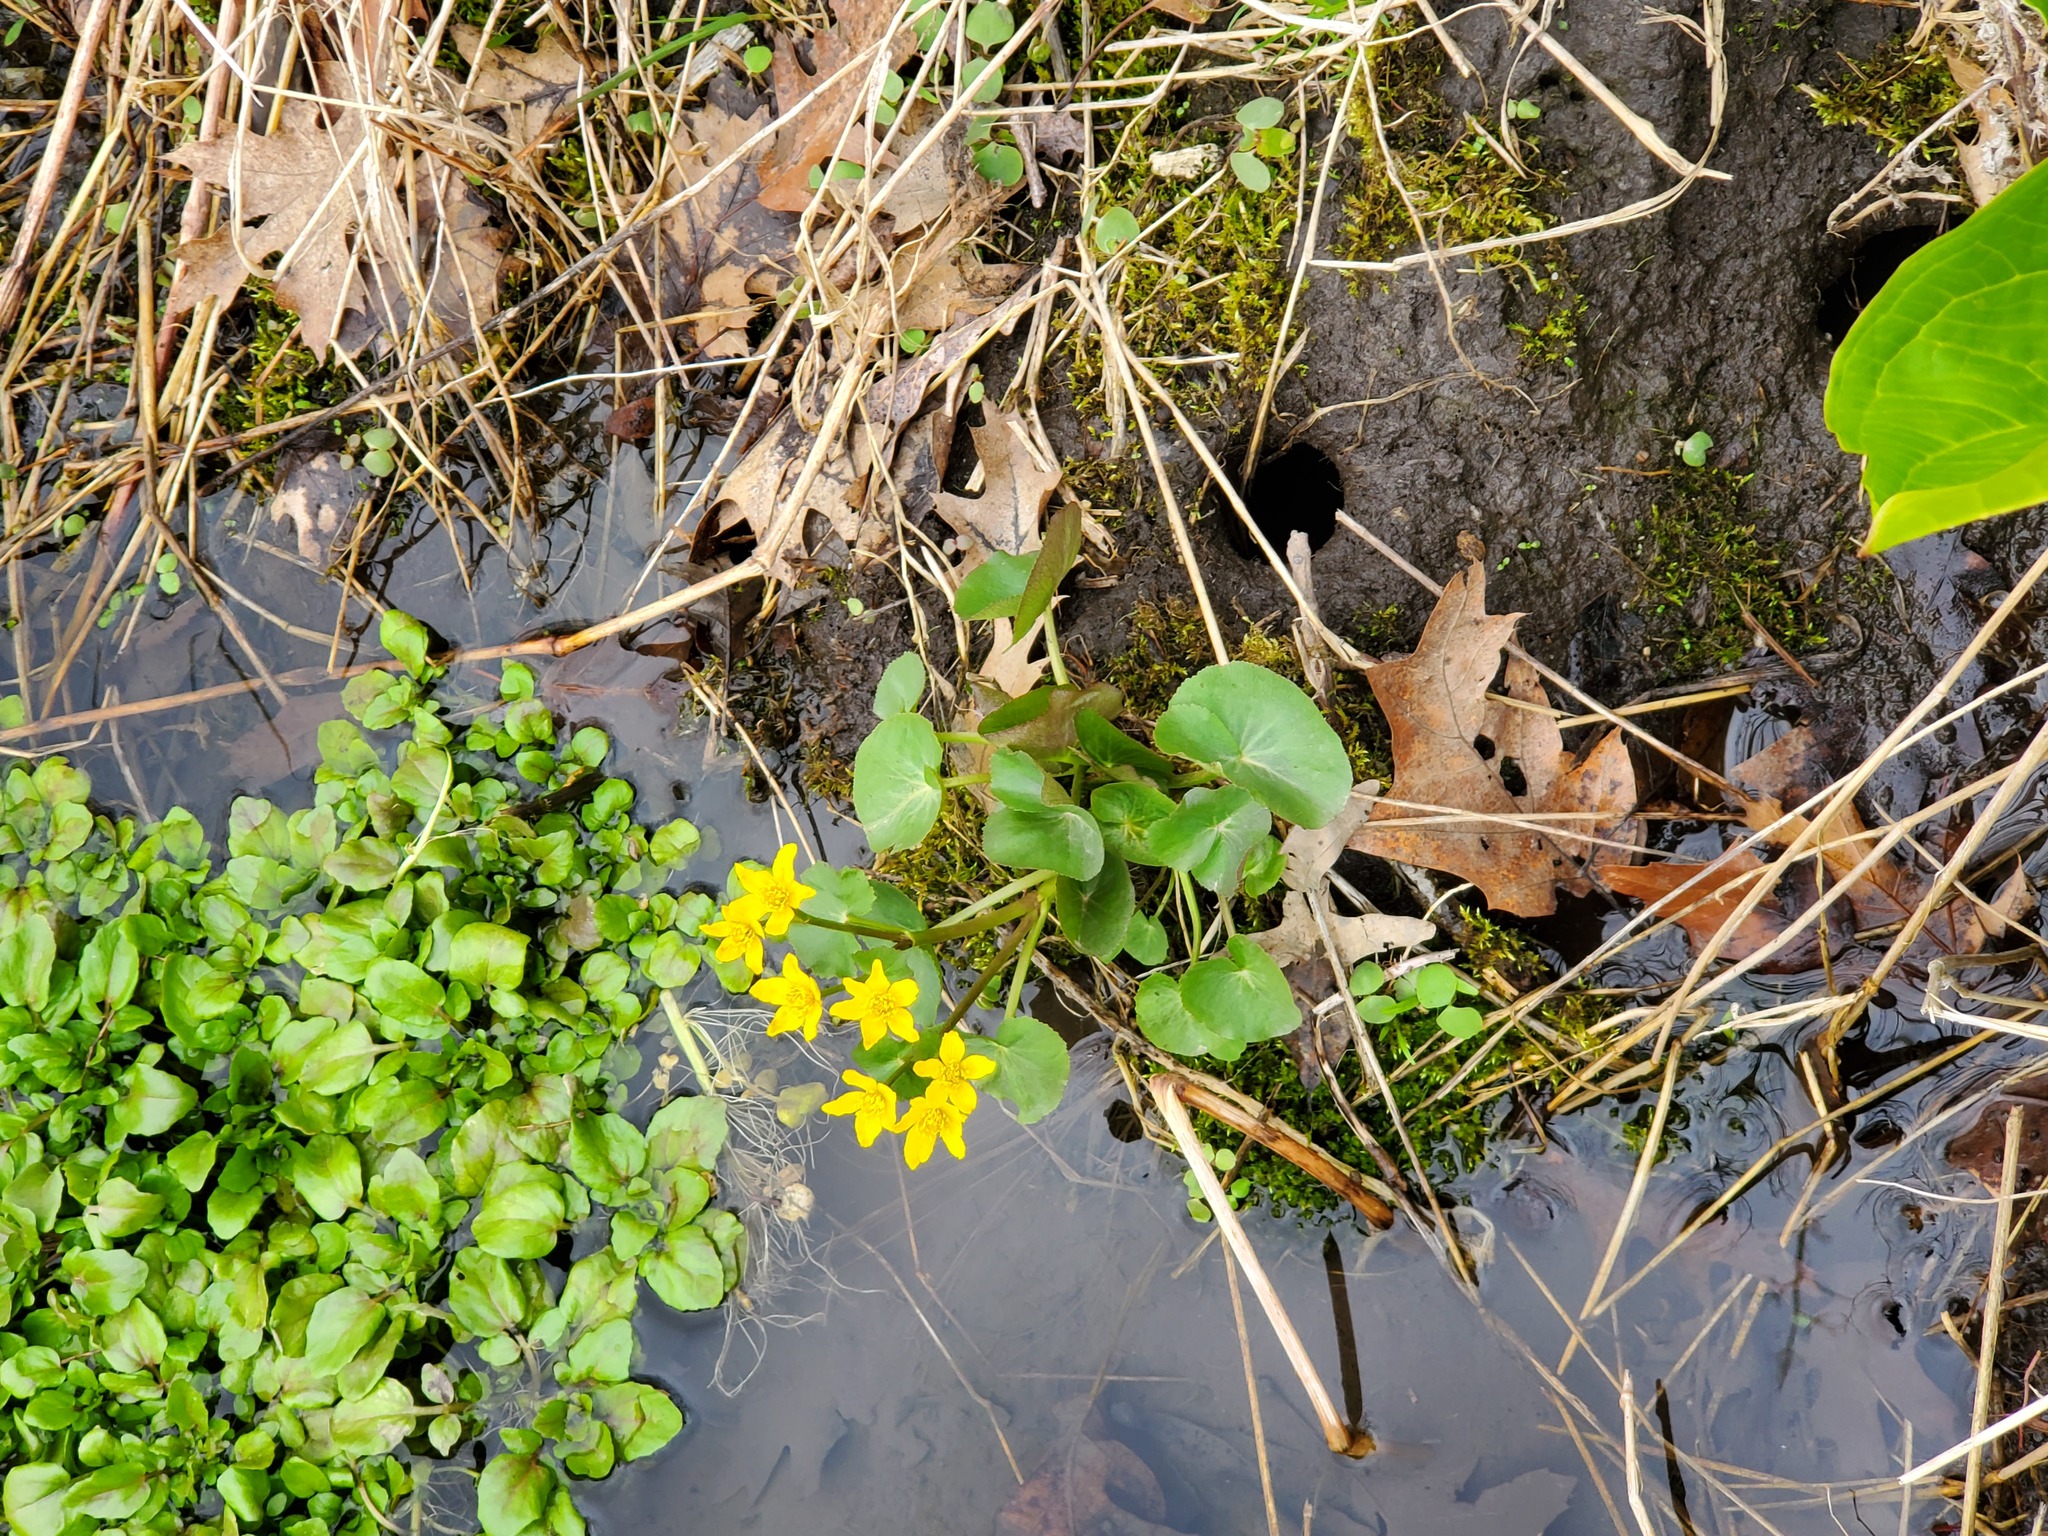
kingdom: Plantae
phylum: Tracheophyta
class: Magnoliopsida
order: Ranunculales
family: Ranunculaceae
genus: Caltha
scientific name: Caltha palustris
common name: Marsh marigold
